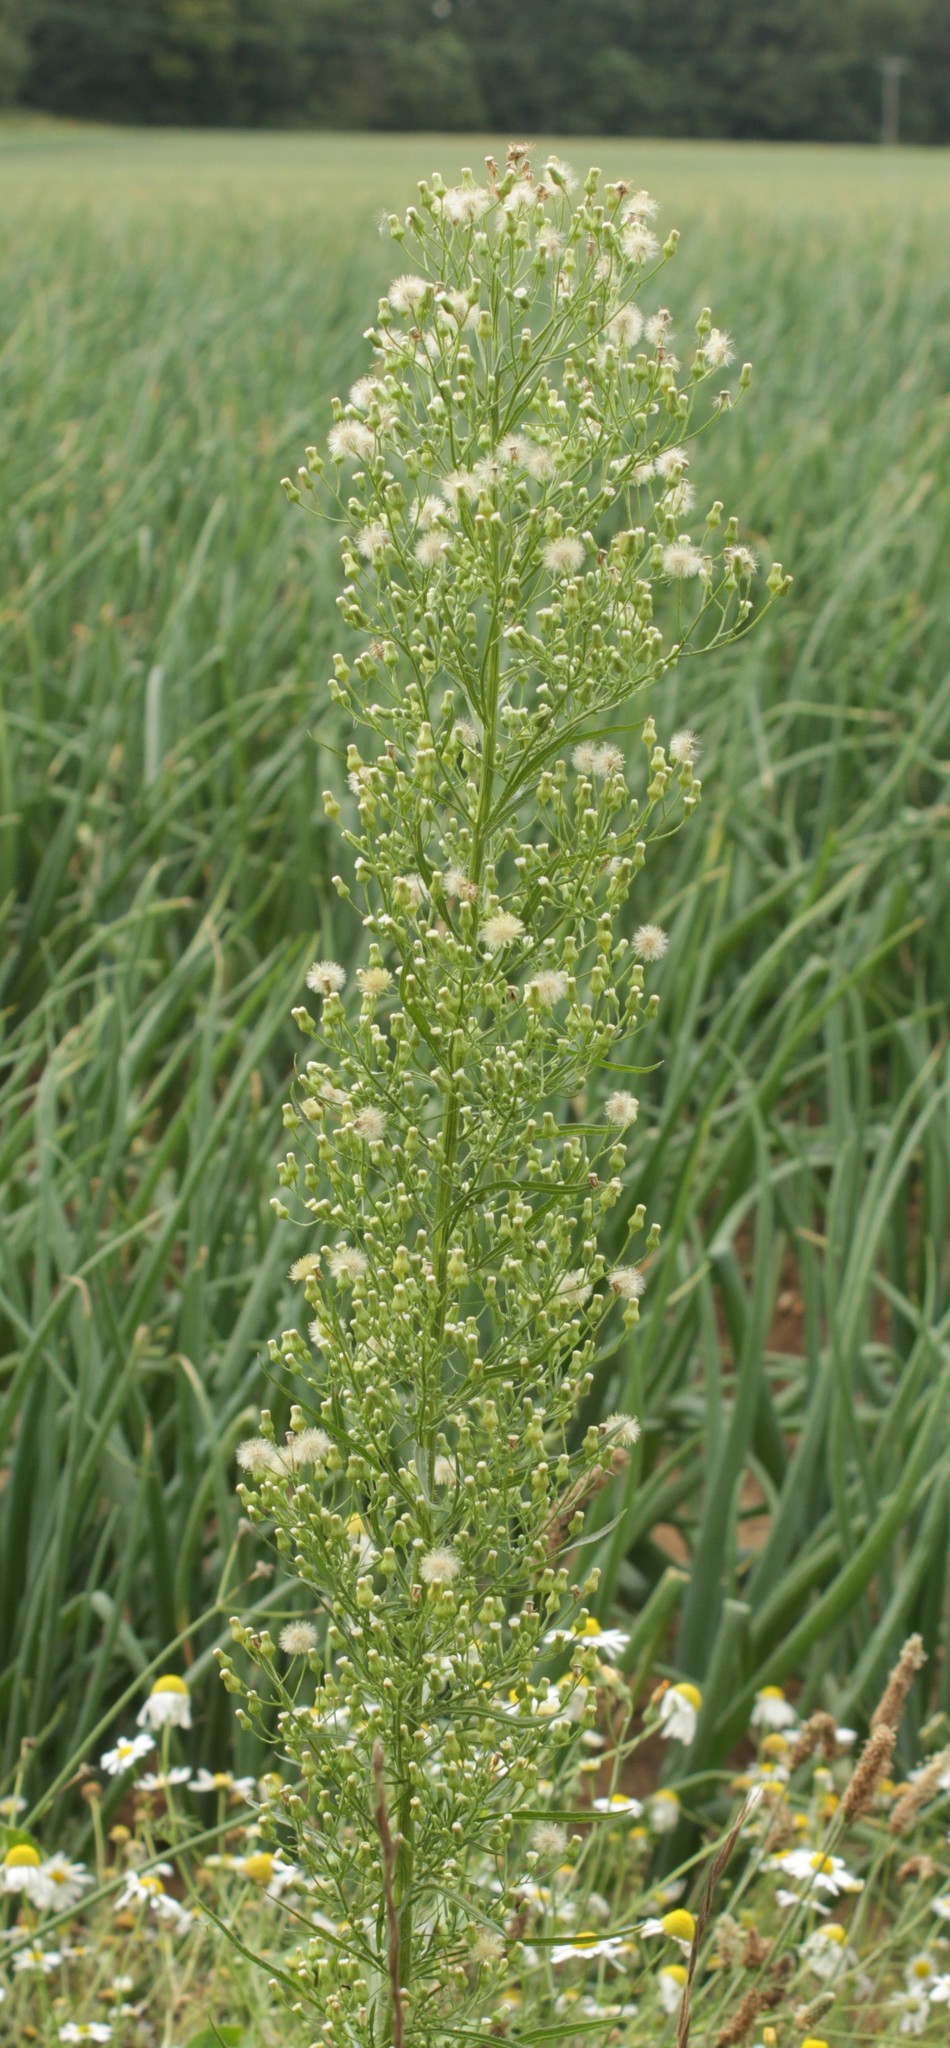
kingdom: Plantae
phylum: Tracheophyta
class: Magnoliopsida
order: Asterales
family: Asteraceae
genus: Erigeron
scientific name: Erigeron canadensis
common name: Canadian fleabane
